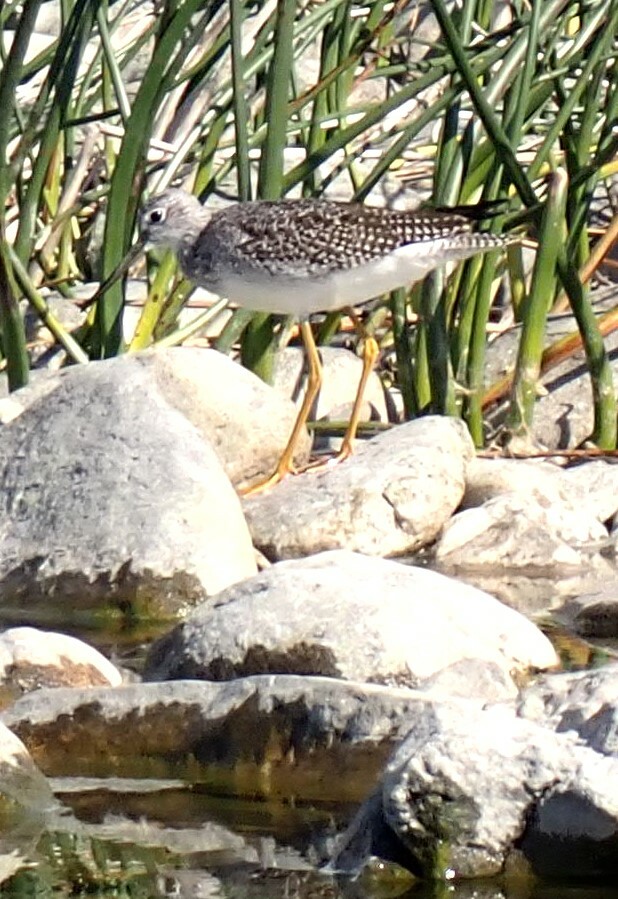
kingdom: Animalia
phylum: Chordata
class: Aves
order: Charadriiformes
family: Scolopacidae
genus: Tringa
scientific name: Tringa melanoleuca
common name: Greater yellowlegs
